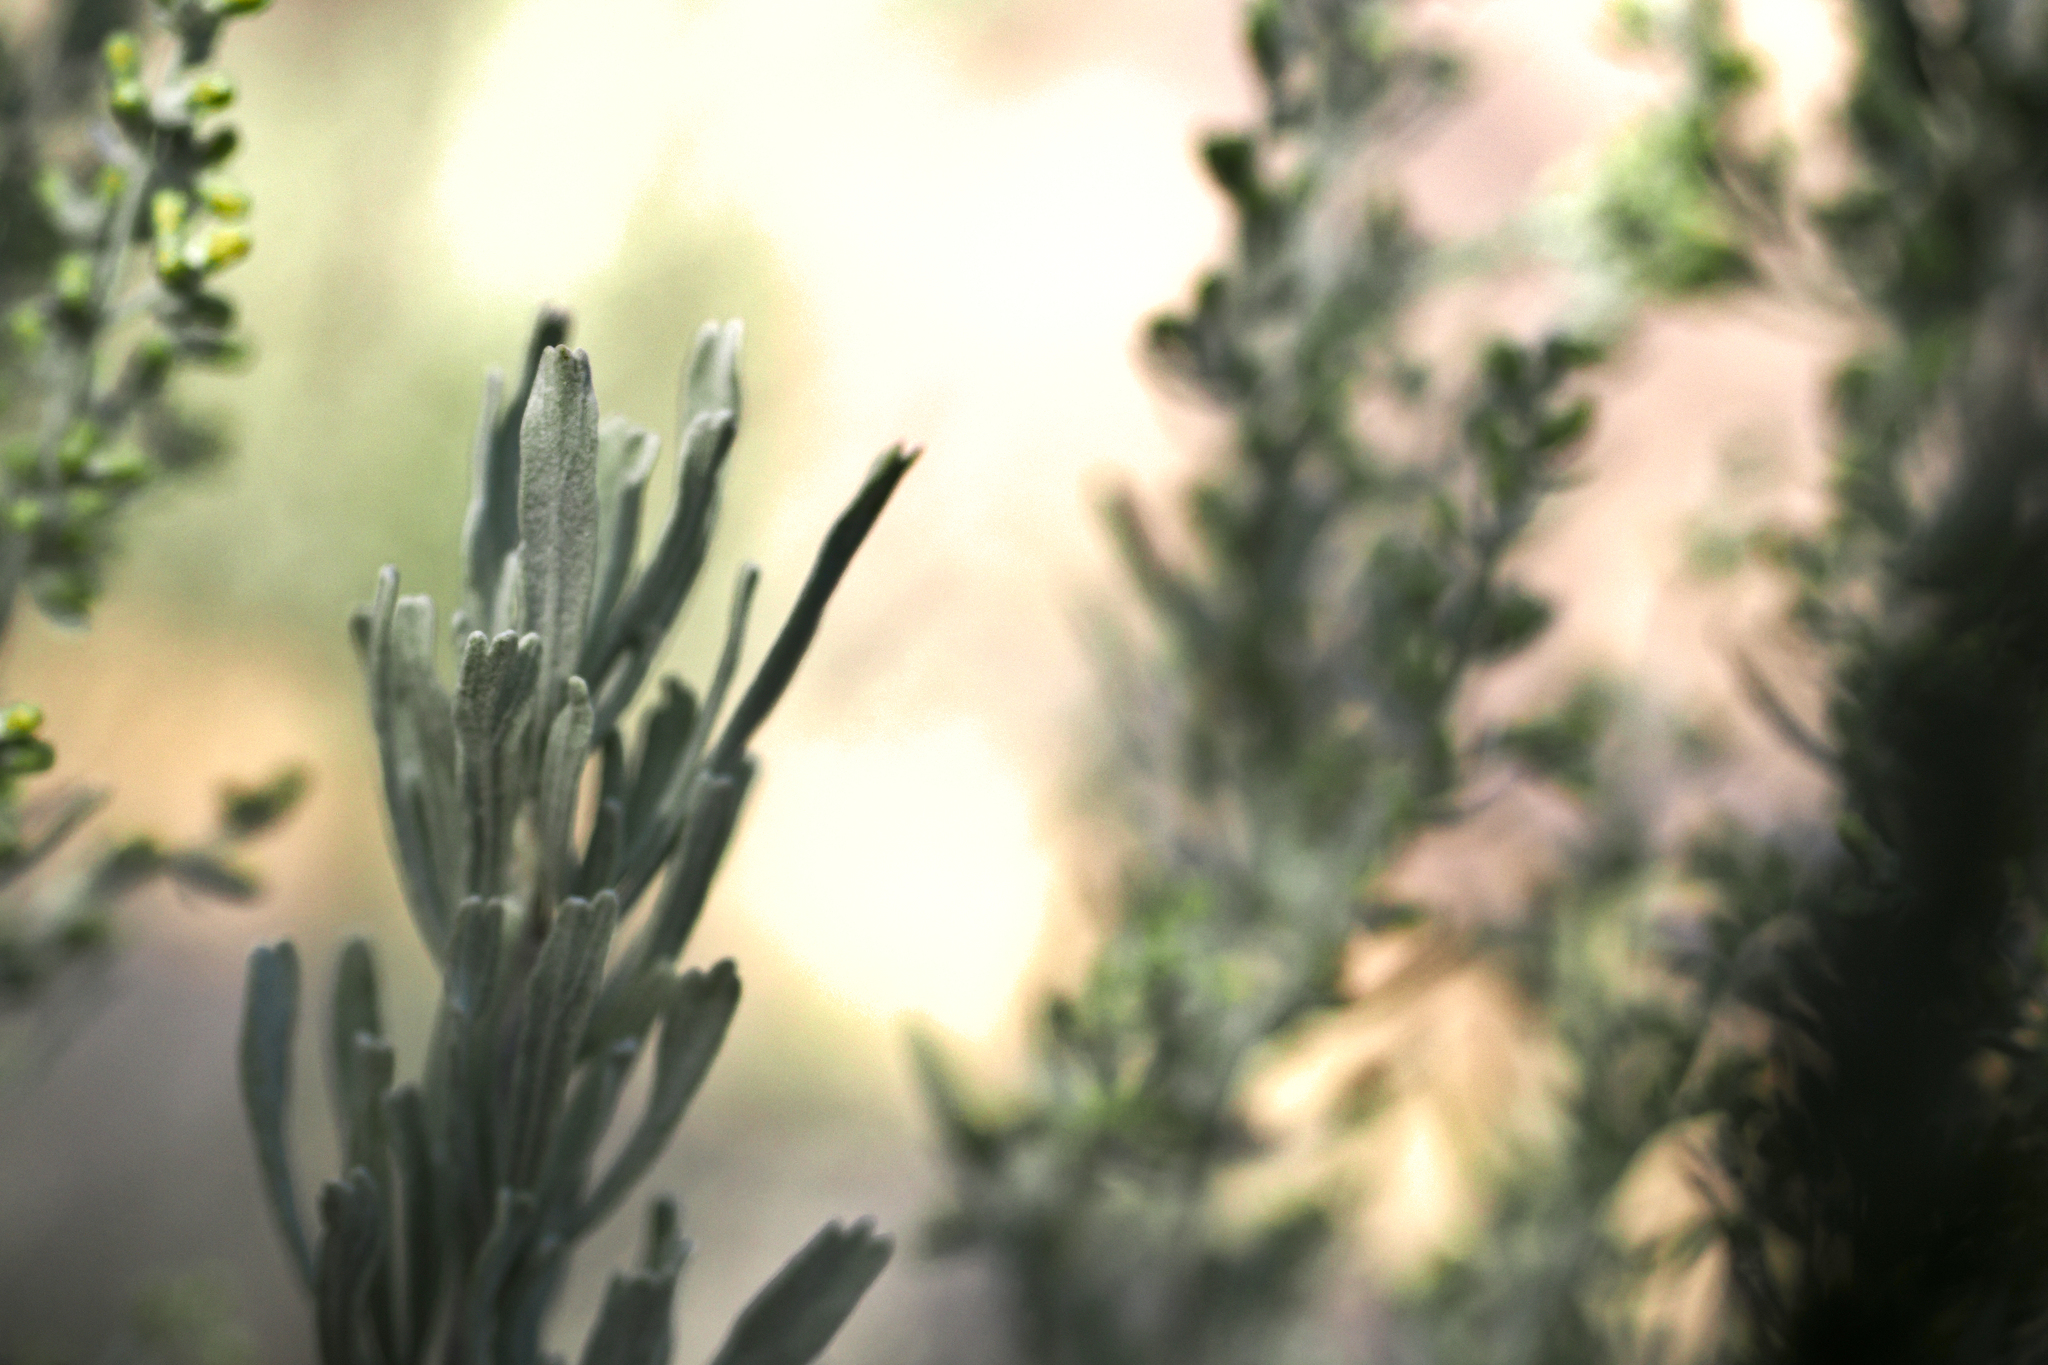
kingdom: Plantae
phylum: Tracheophyta
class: Magnoliopsida
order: Asterales
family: Asteraceae
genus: Artemisia
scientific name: Artemisia tridentata
